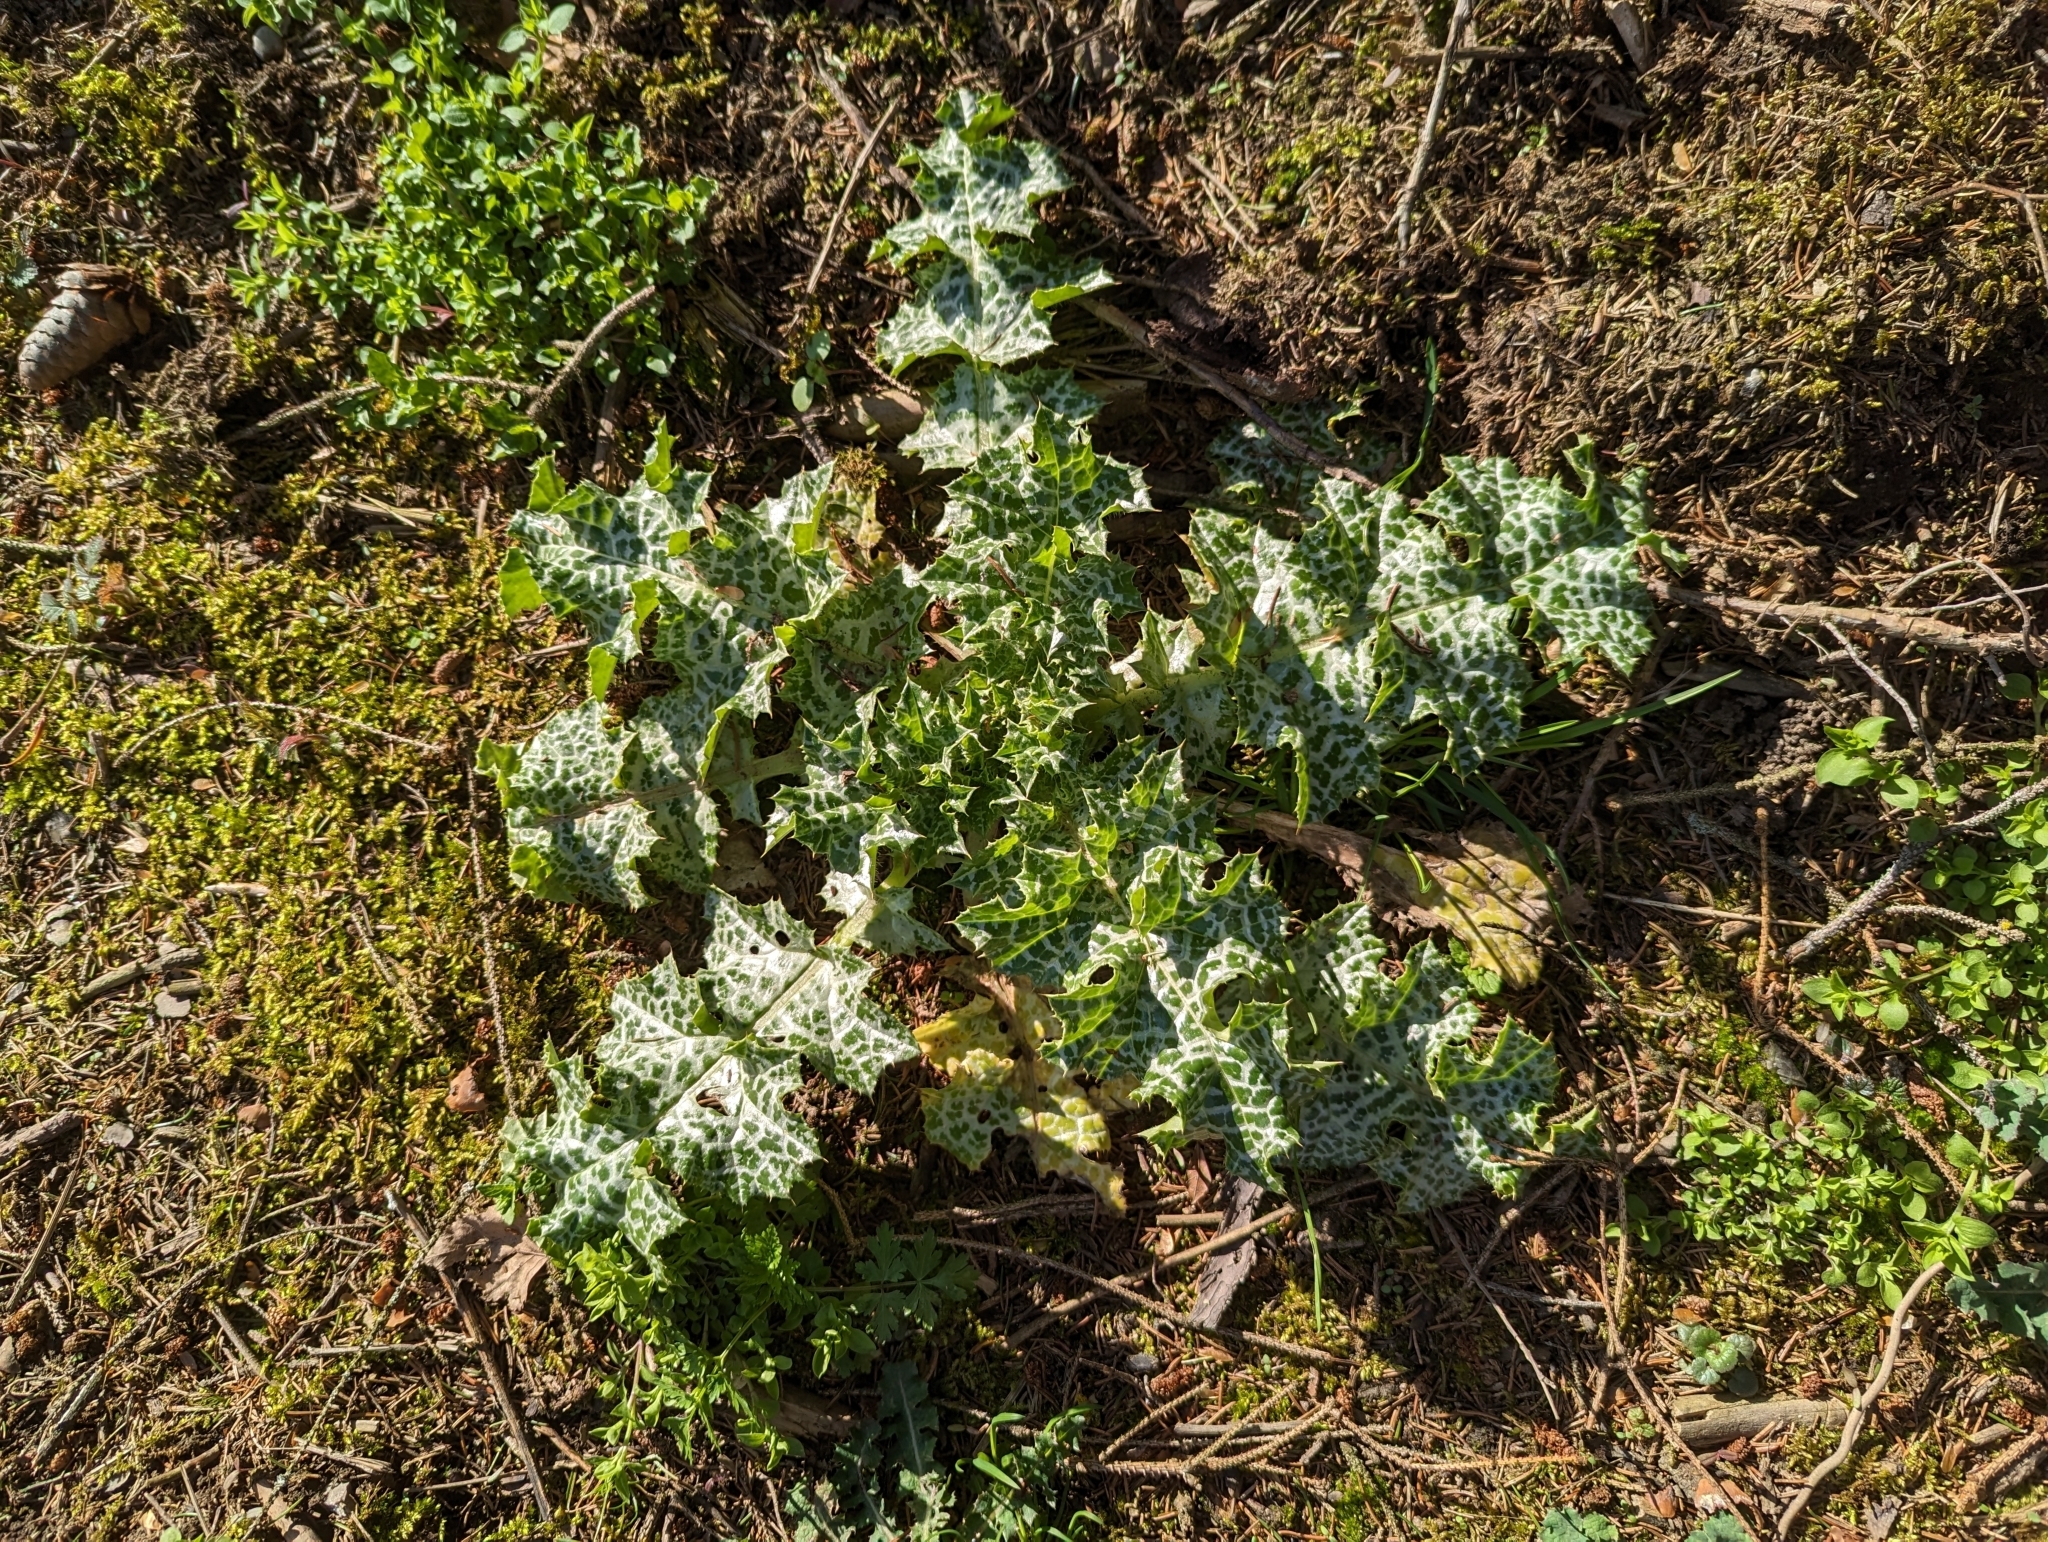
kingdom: Plantae
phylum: Tracheophyta
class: Magnoliopsida
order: Asterales
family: Asteraceae
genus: Silybum
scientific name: Silybum marianum
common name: Milk thistle
